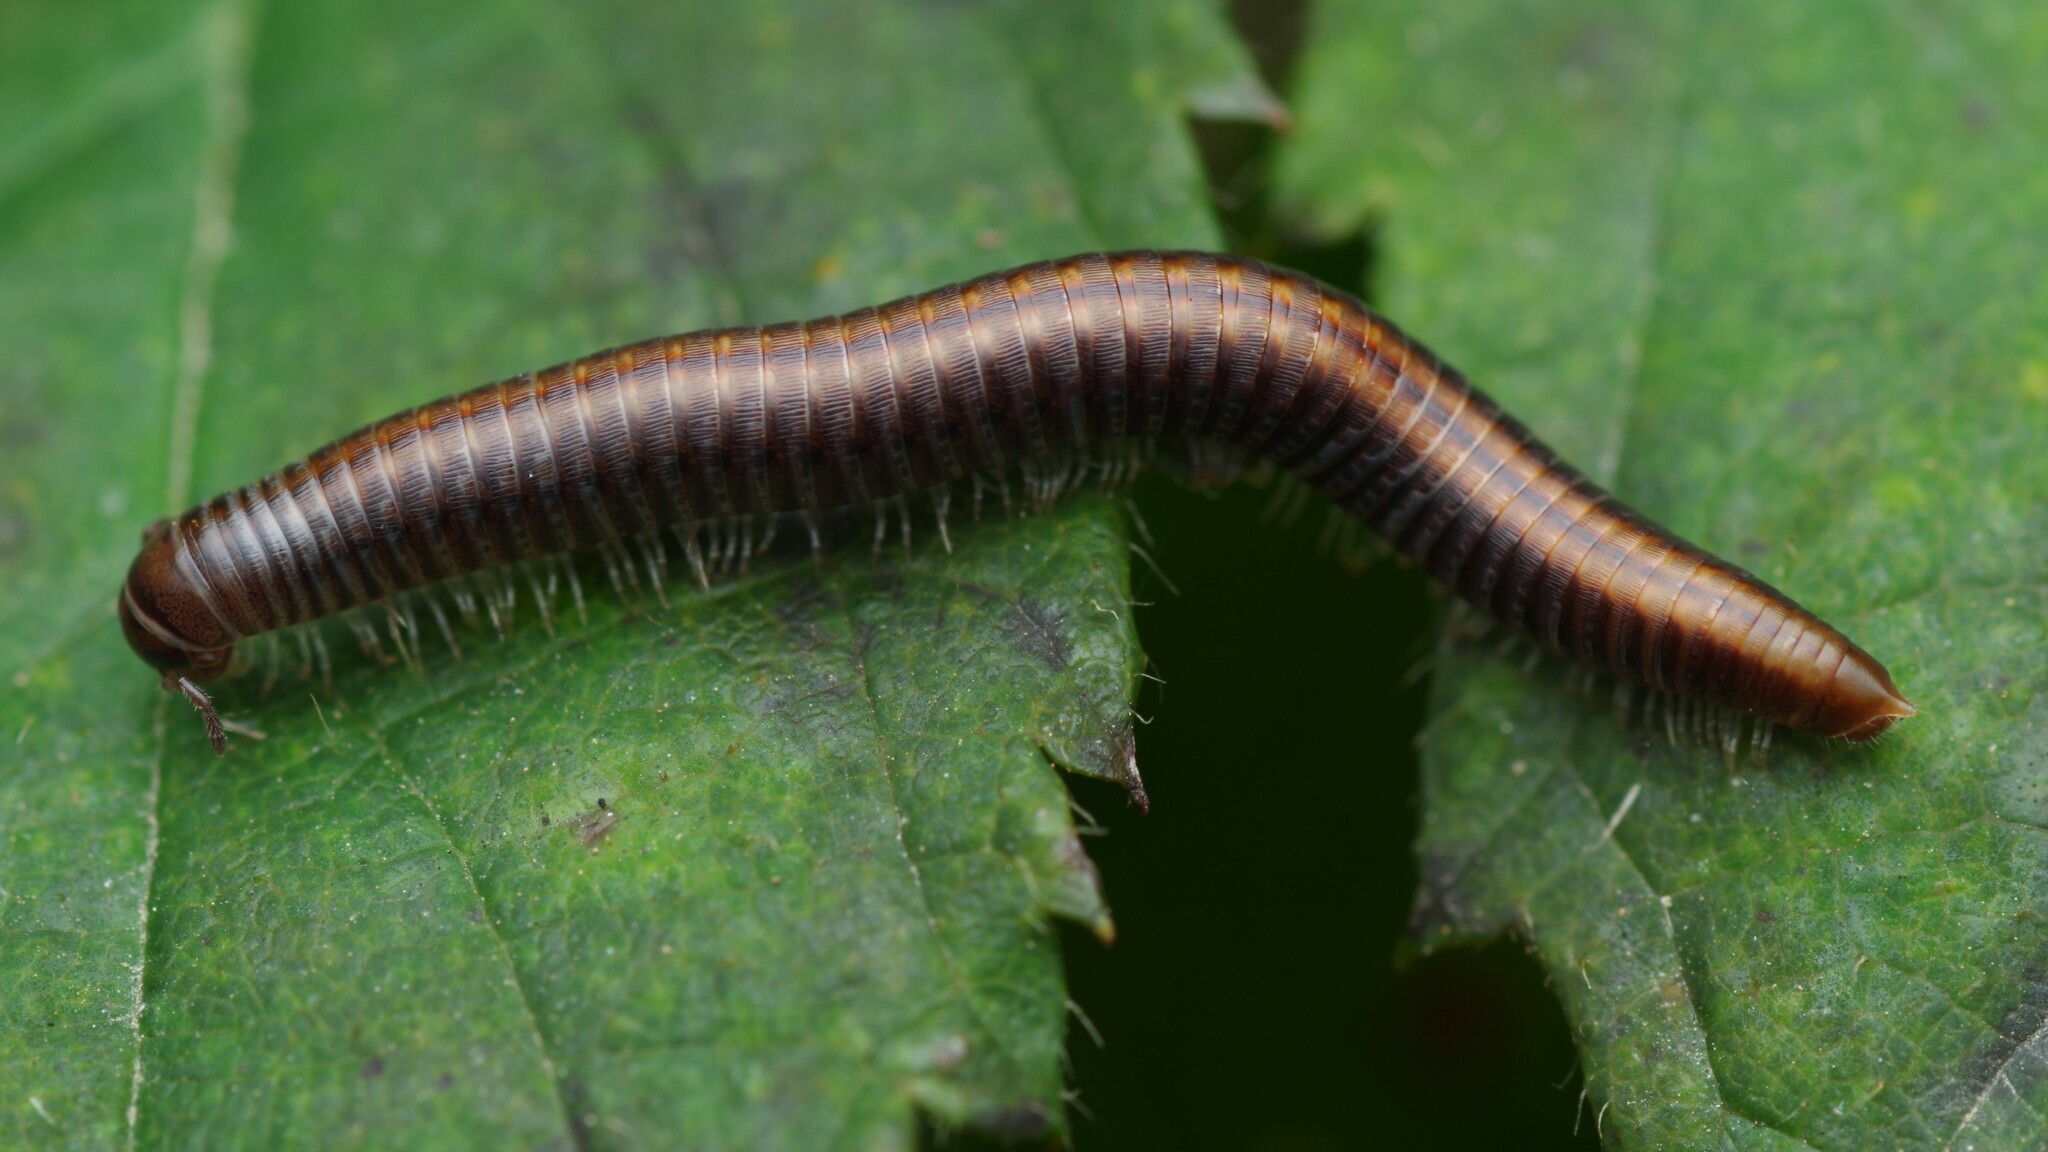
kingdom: Animalia
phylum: Arthropoda
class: Diplopoda
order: Julida
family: Julidae
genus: Ommatoiulus
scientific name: Ommatoiulus sabulosus
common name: Striped millipede
